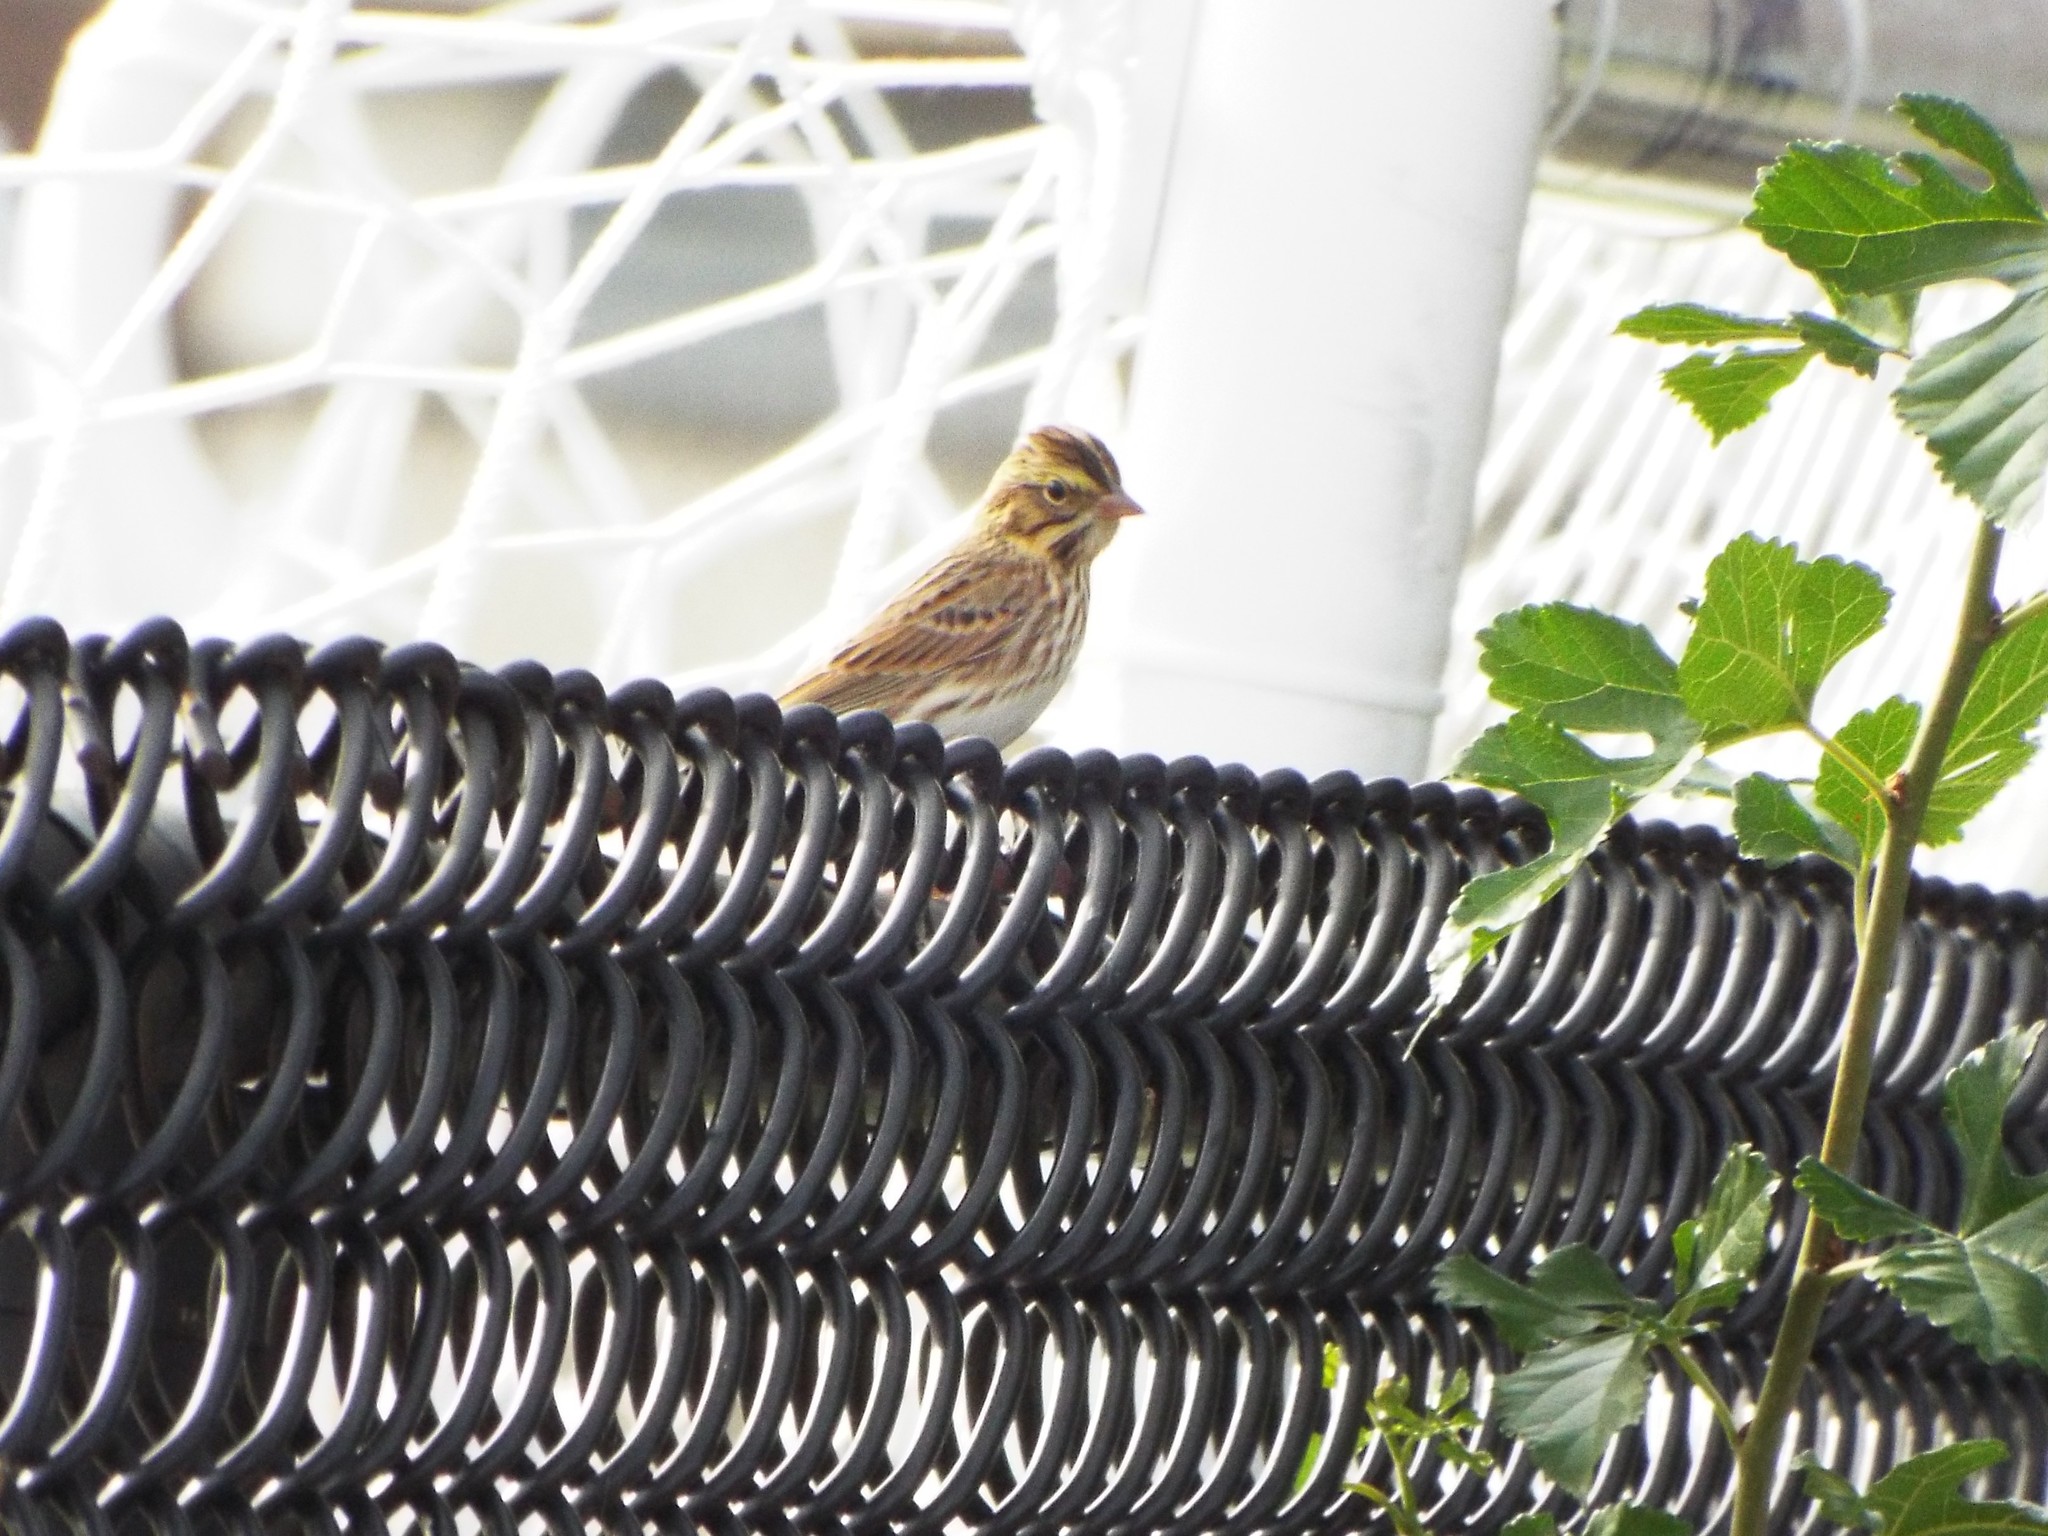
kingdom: Animalia
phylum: Chordata
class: Aves
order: Passeriformes
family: Passerellidae
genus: Passerculus
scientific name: Passerculus sandwichensis
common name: Savannah sparrow
